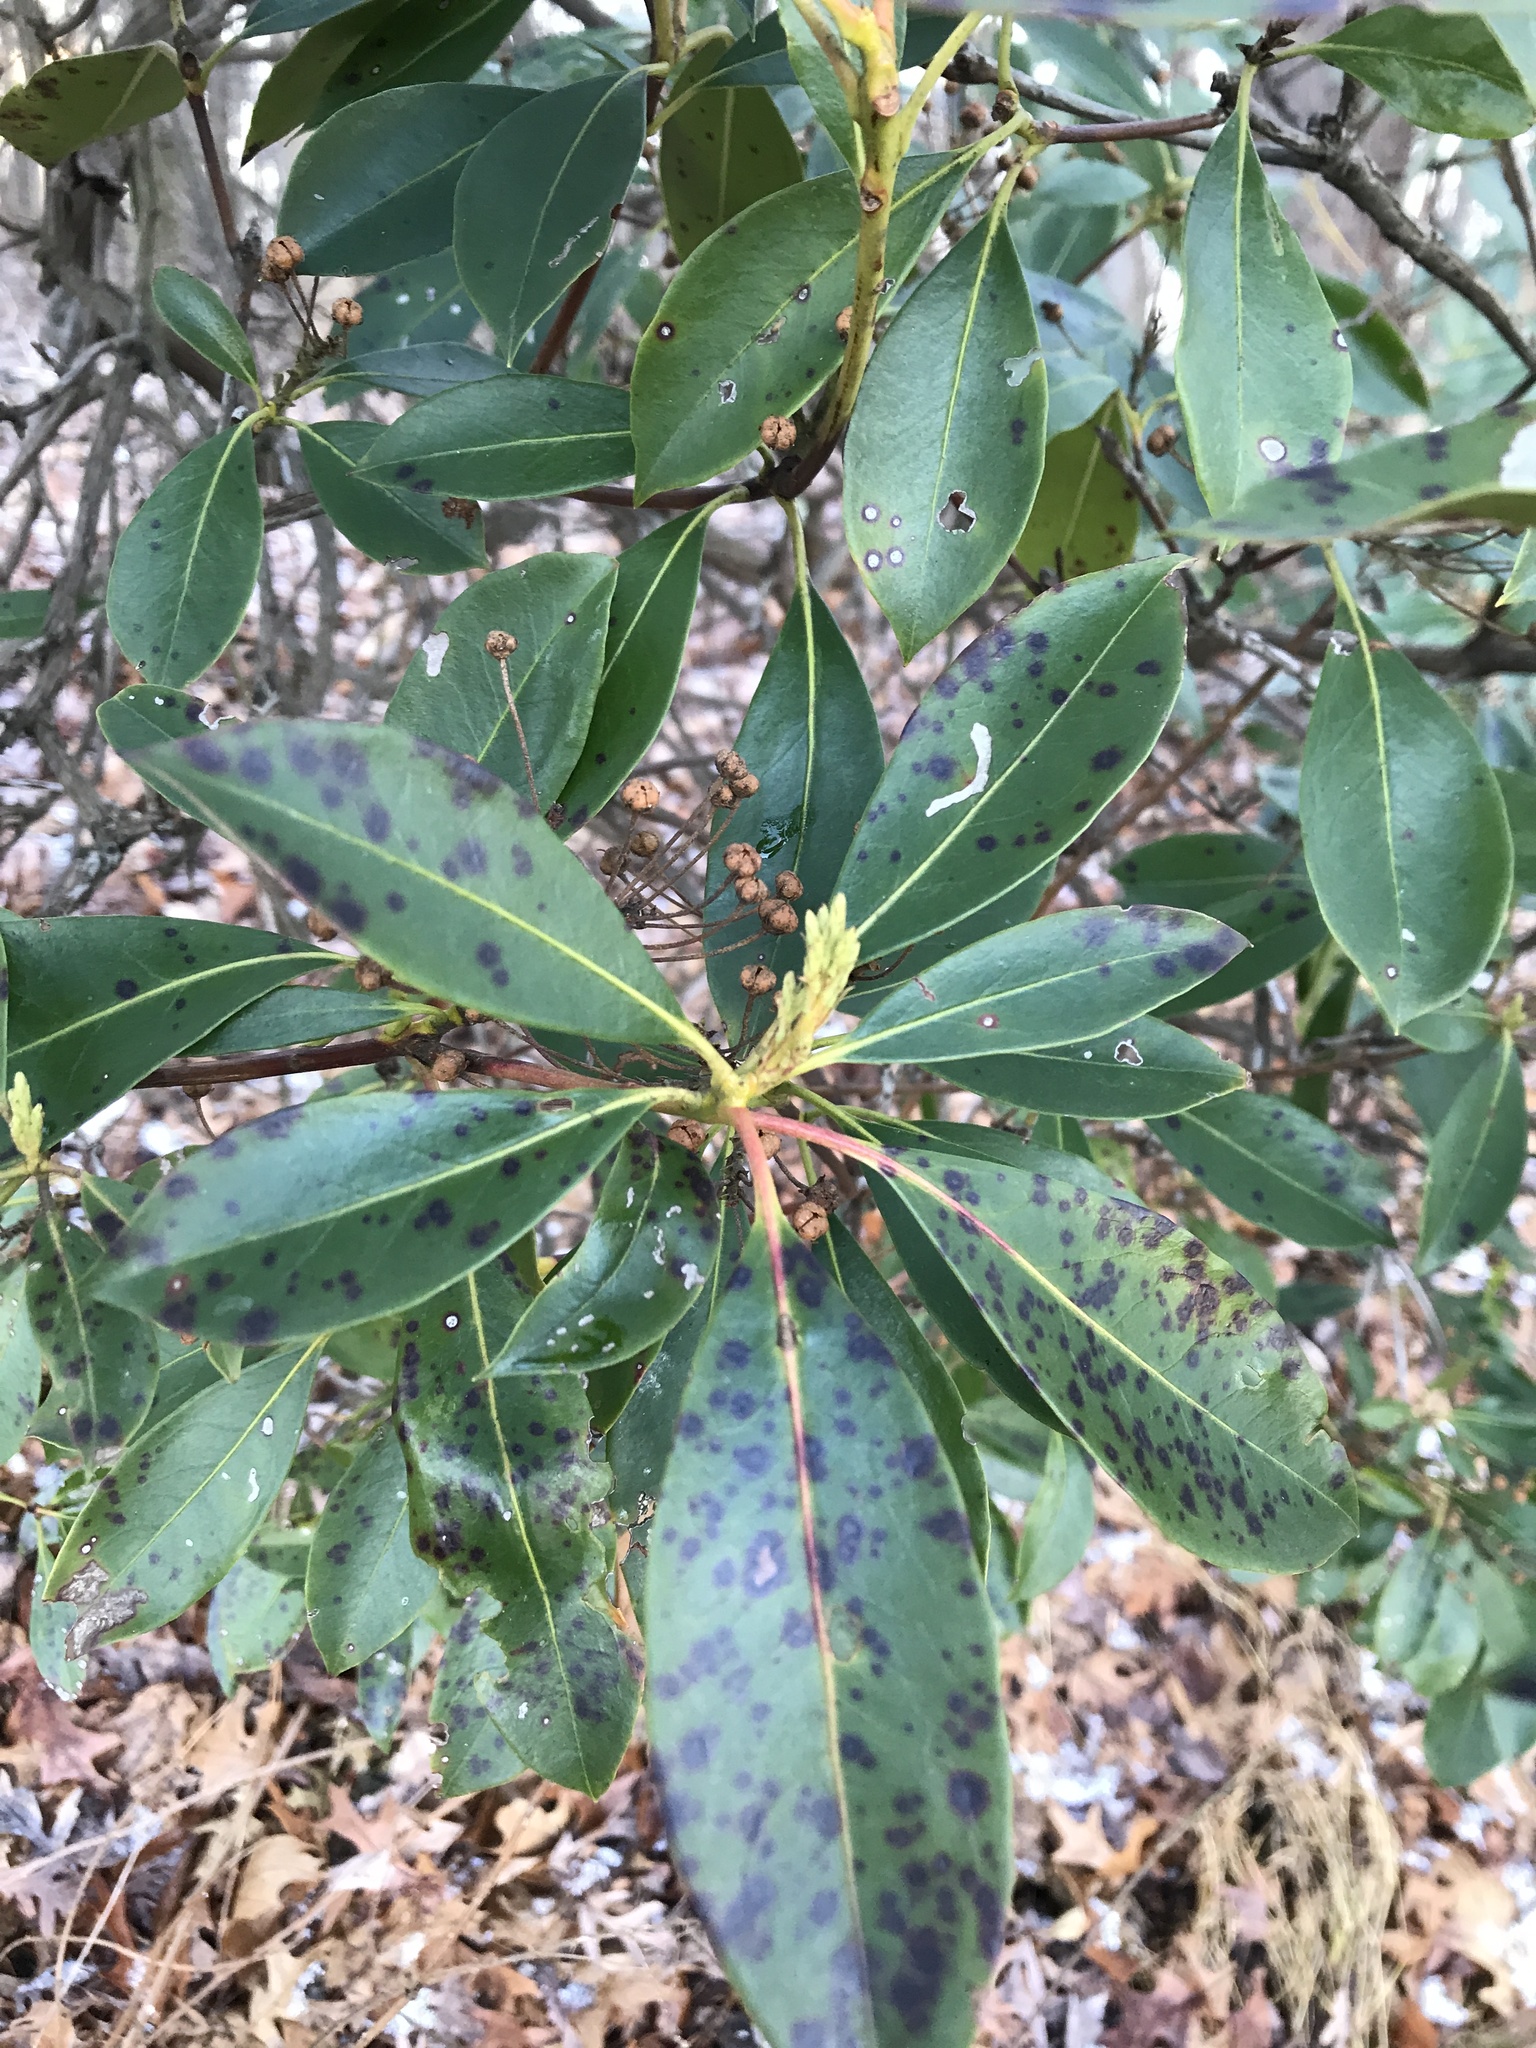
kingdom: Fungi
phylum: Ascomycota
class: Dothideomycetes
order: Mycosphaerellales
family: Mycosphaerellaceae
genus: Mycosphaerella
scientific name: Mycosphaerella colorata
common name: Mountain laurel leaf spot
